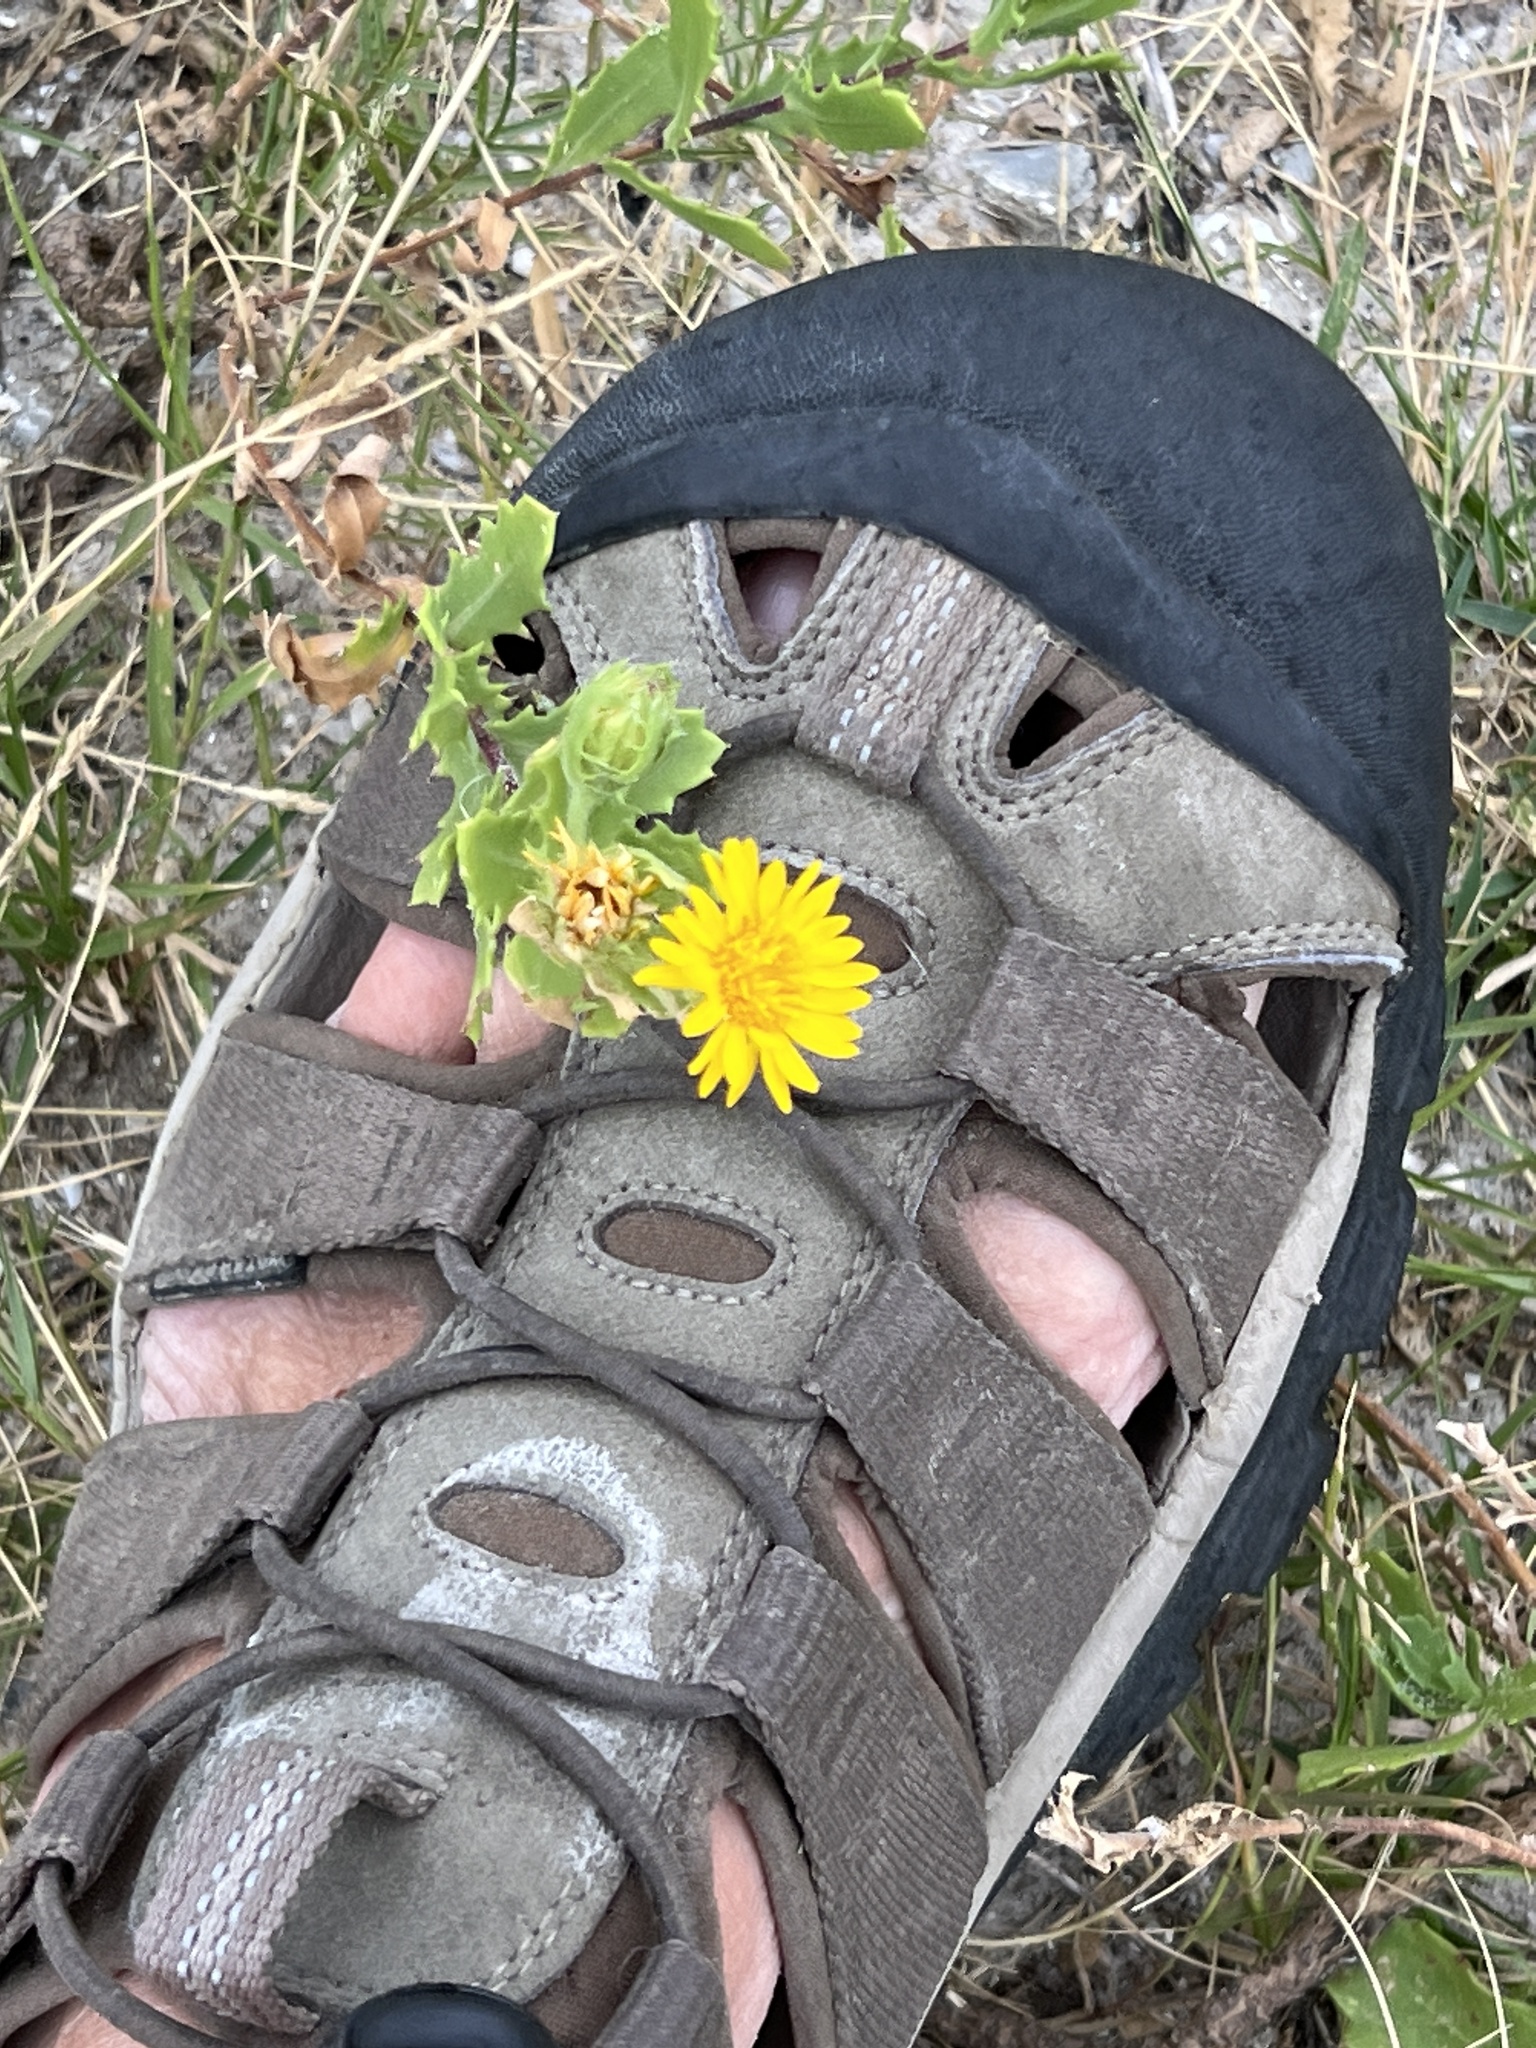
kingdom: Plantae
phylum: Tracheophyta
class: Magnoliopsida
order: Asterales
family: Asteraceae
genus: Rayjacksonia
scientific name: Rayjacksonia phyllocephala
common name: Gulf coast camphor daisy
